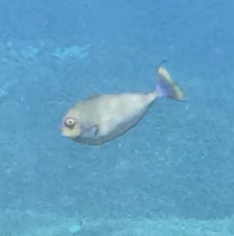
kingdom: Animalia
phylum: Chordata
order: Perciformes
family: Acanthuridae
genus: Naso
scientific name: Naso vlamingii
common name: Big-nose unicorn
